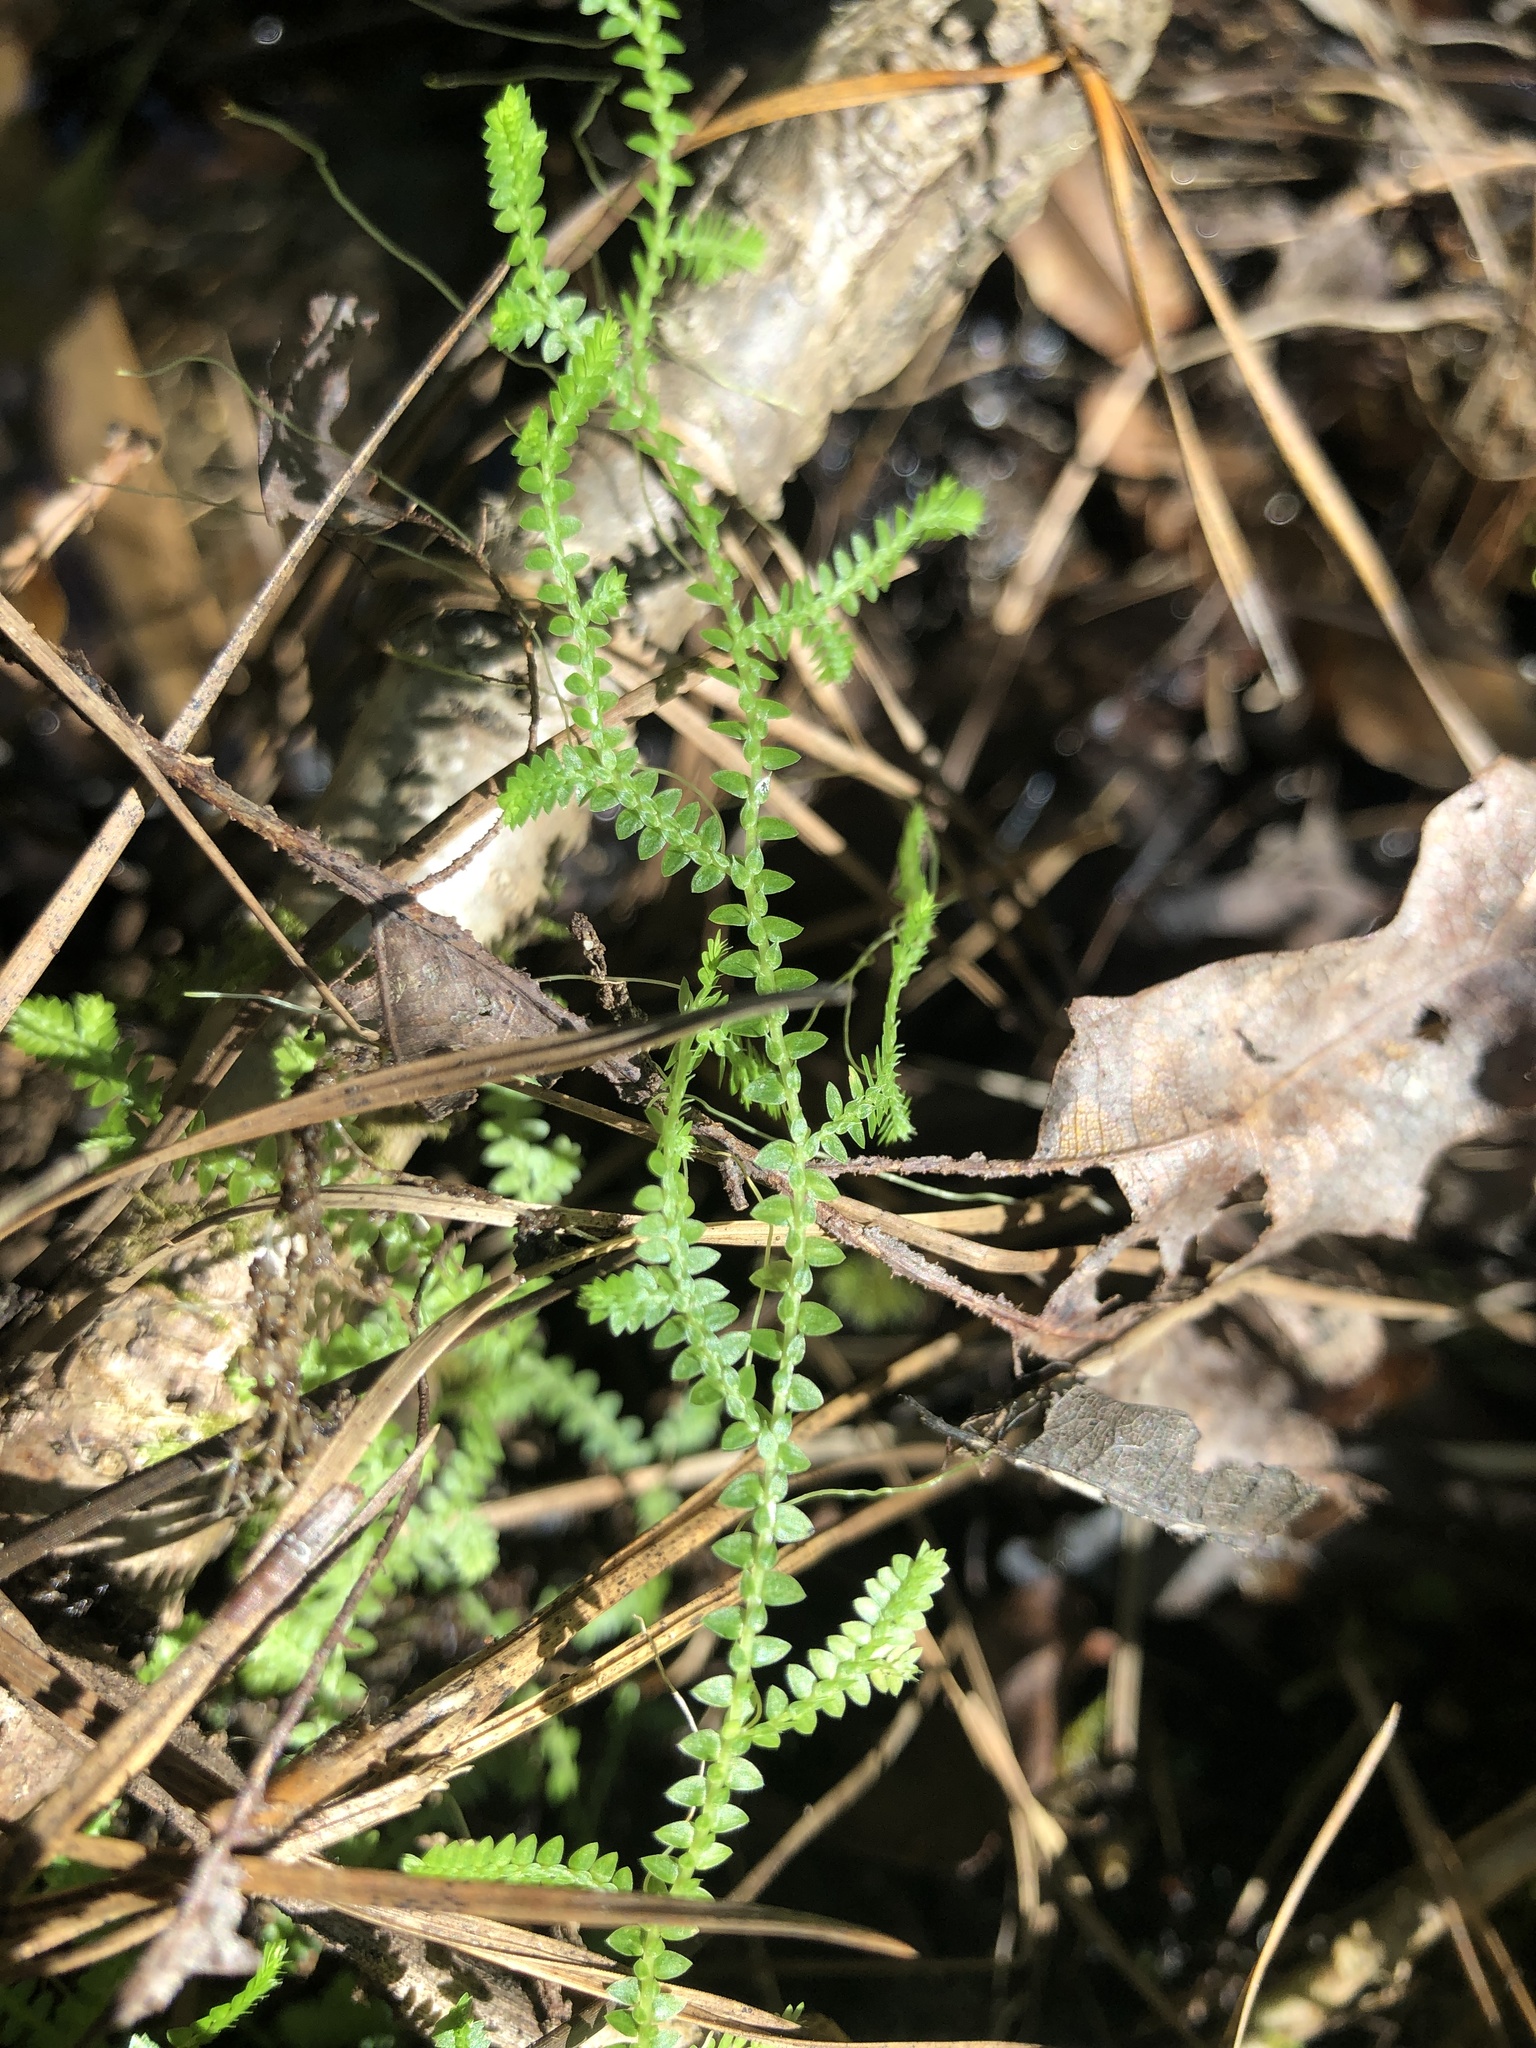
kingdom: Plantae
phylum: Tracheophyta
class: Lycopodiopsida
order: Selaginellales
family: Selaginellaceae
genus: Selaginella
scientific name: Selaginella apoda
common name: Creeping spikemoss
